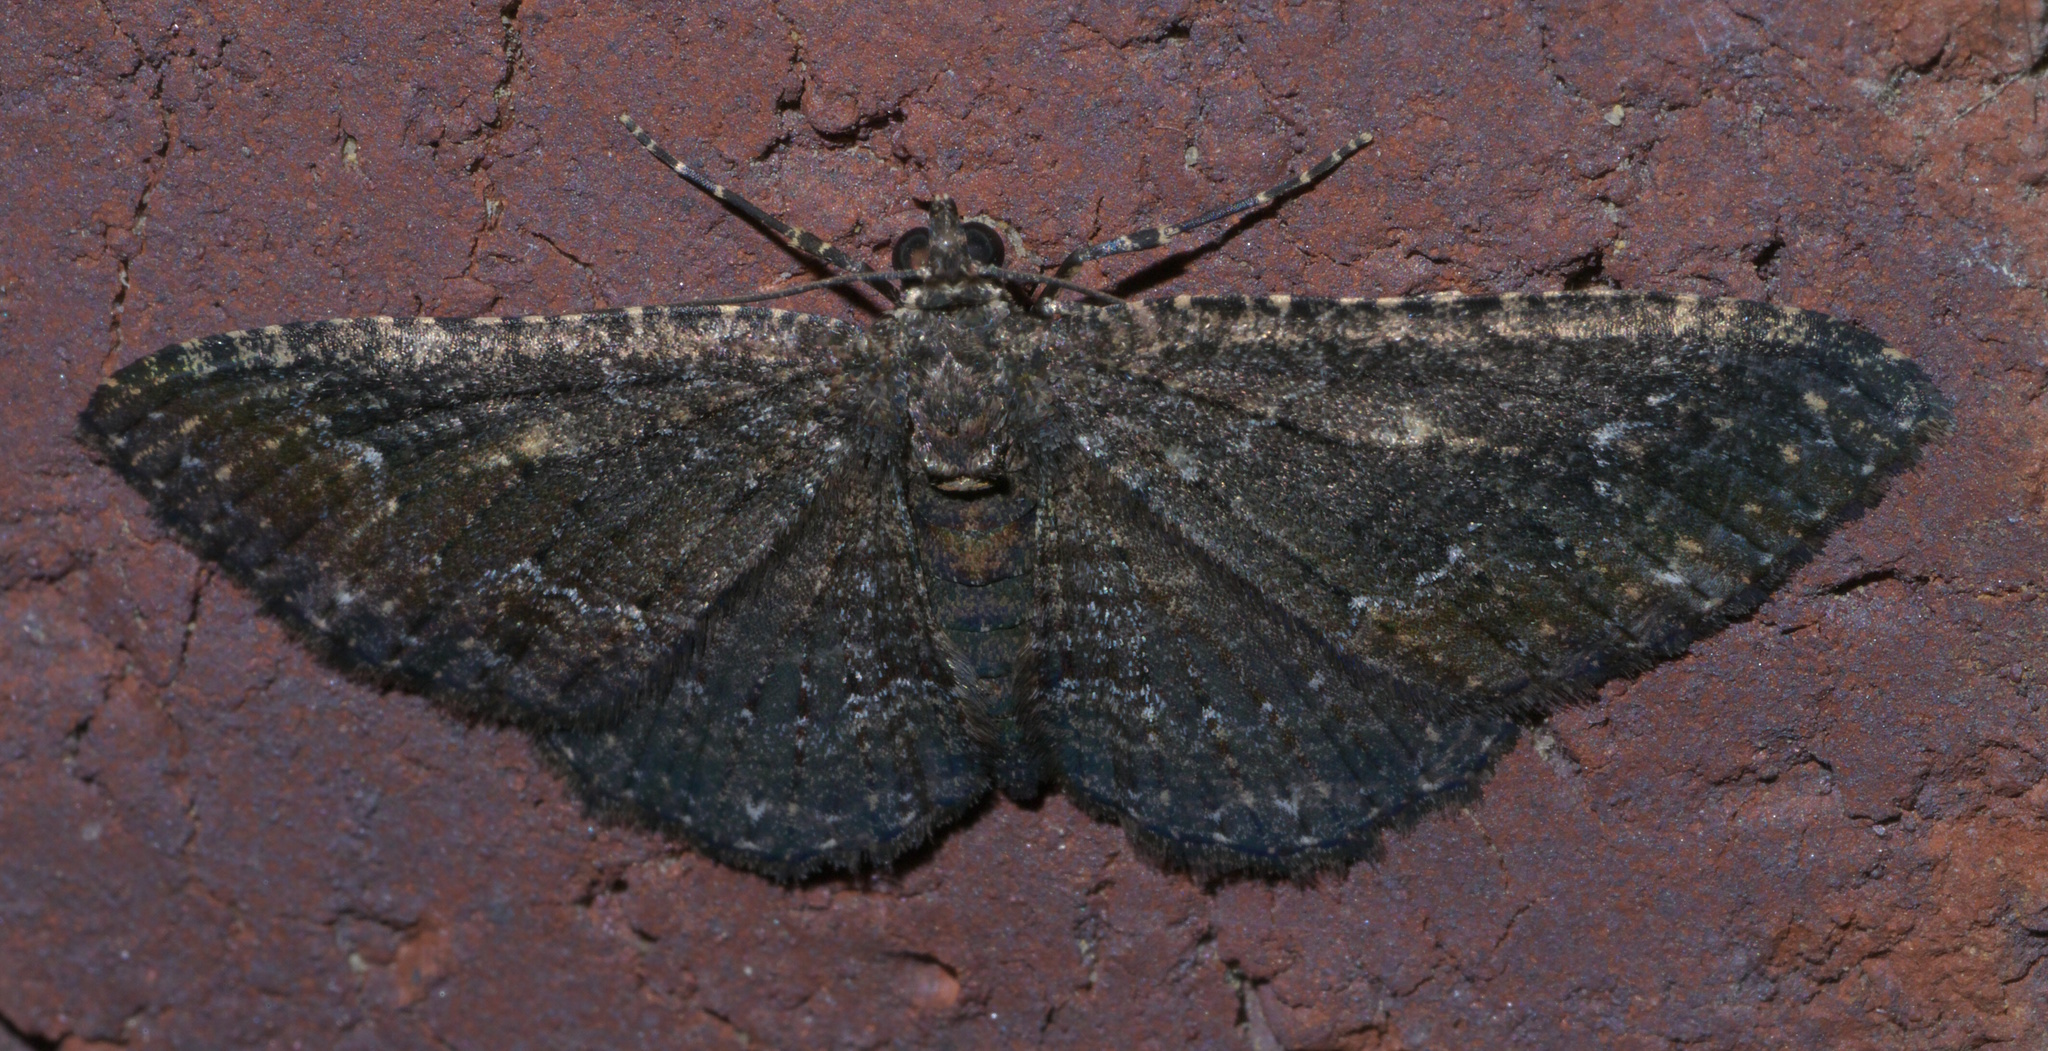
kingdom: Animalia
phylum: Arthropoda
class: Insecta
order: Lepidoptera
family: Geometridae
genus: Disclisioprocta
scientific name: Disclisioprocta stellata
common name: Somber carpet
